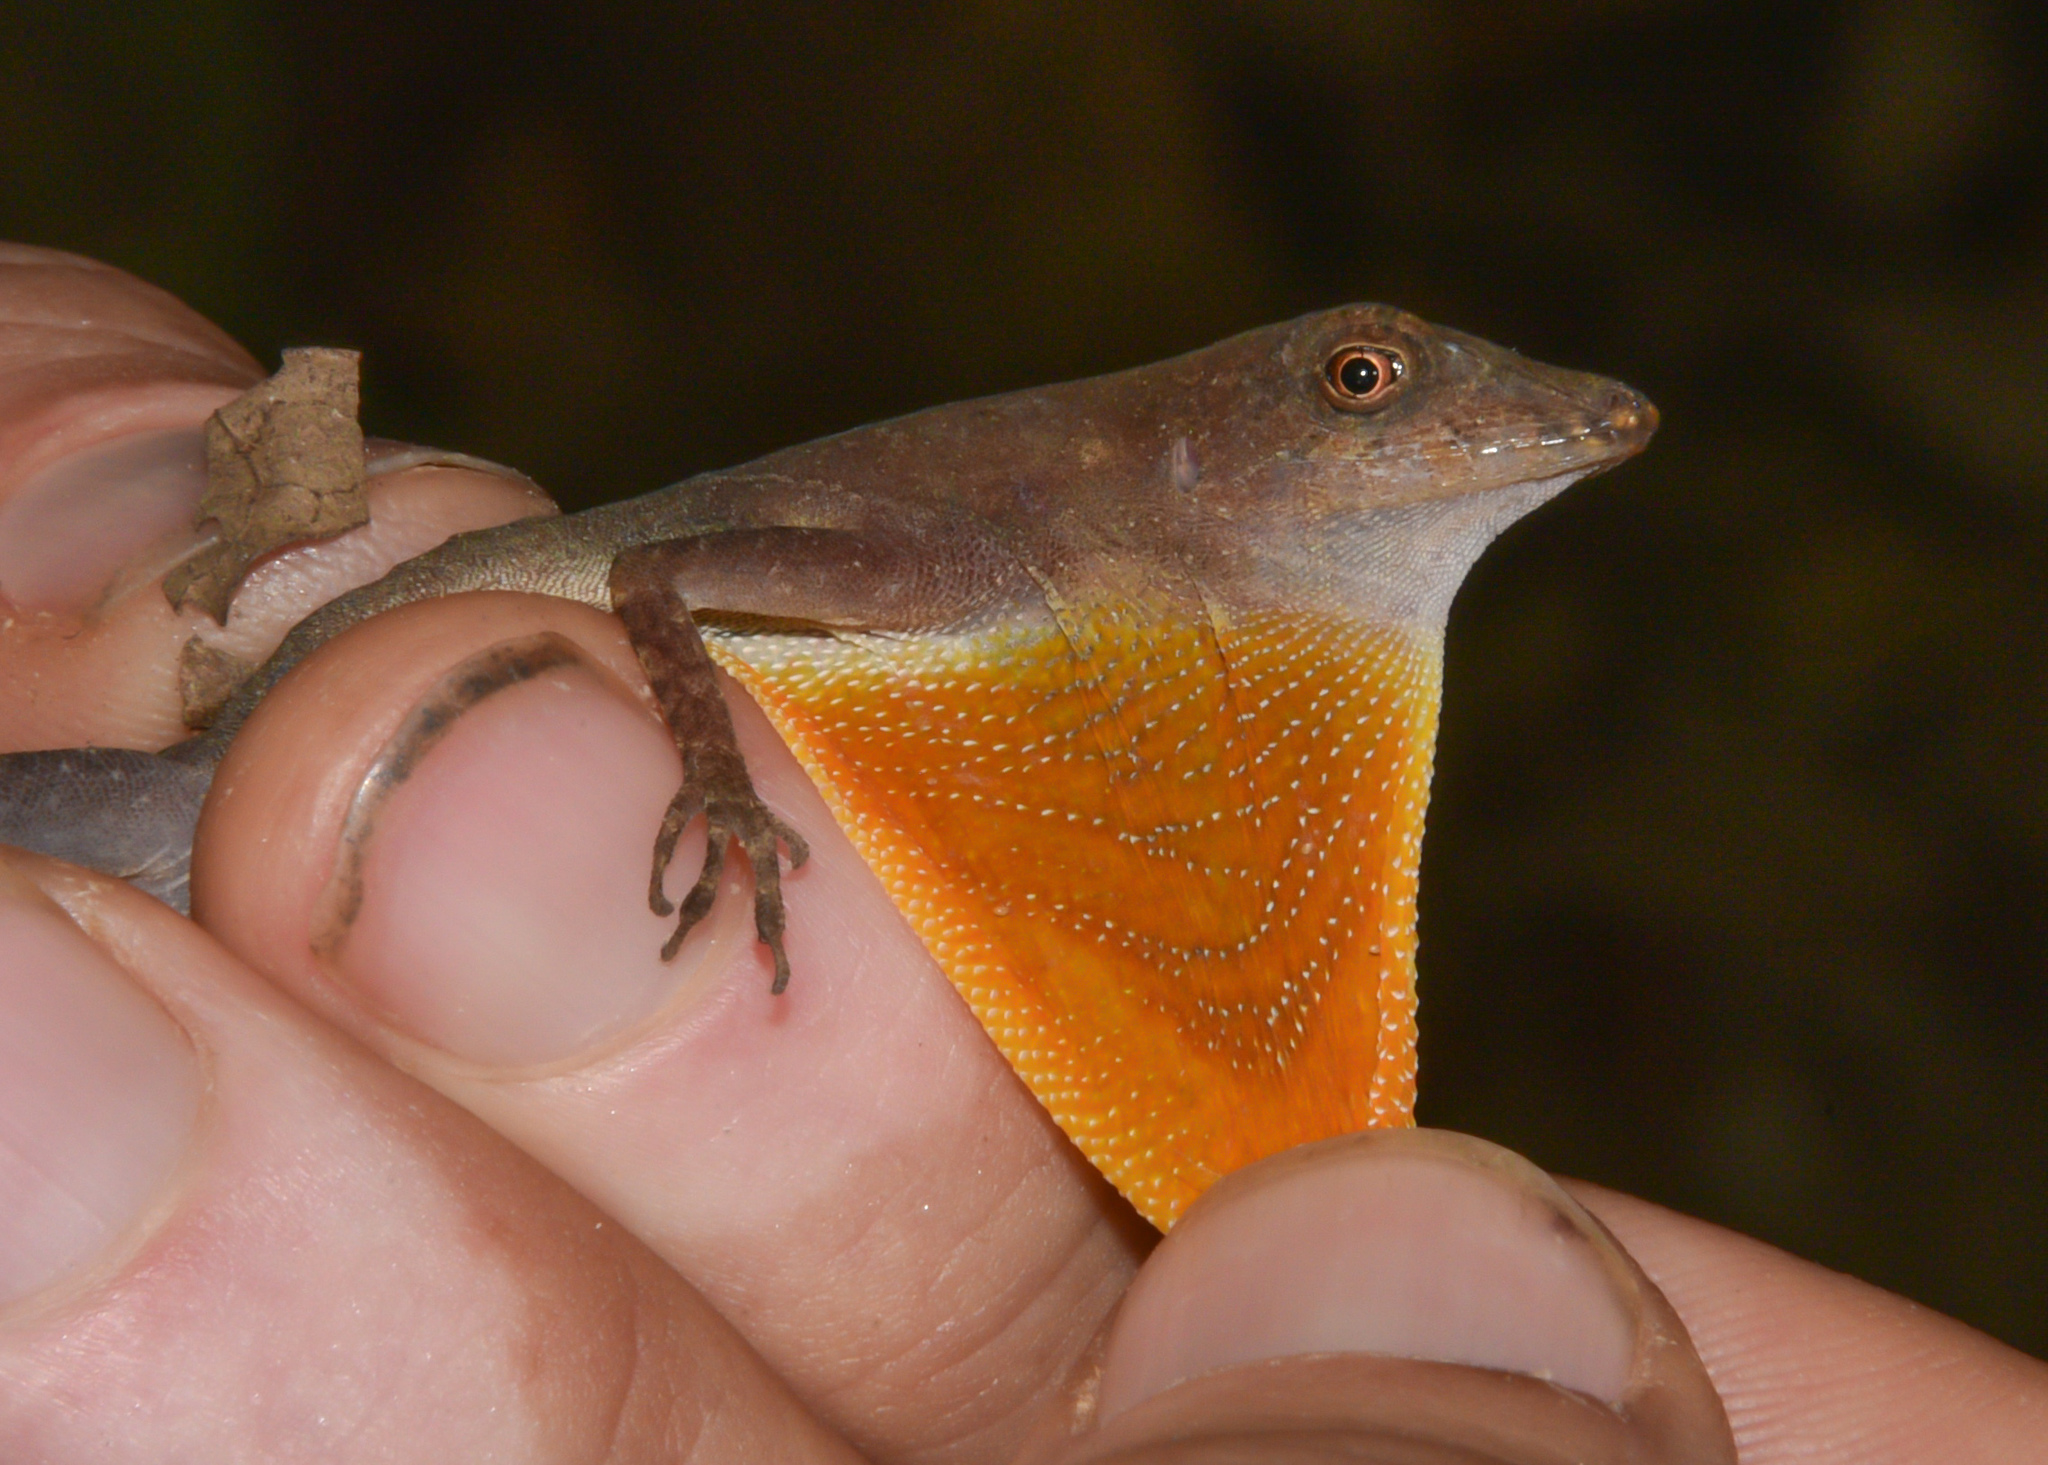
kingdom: Animalia
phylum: Chordata
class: Squamata
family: Dactyloidae
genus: Anolis
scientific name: Anolis osa
